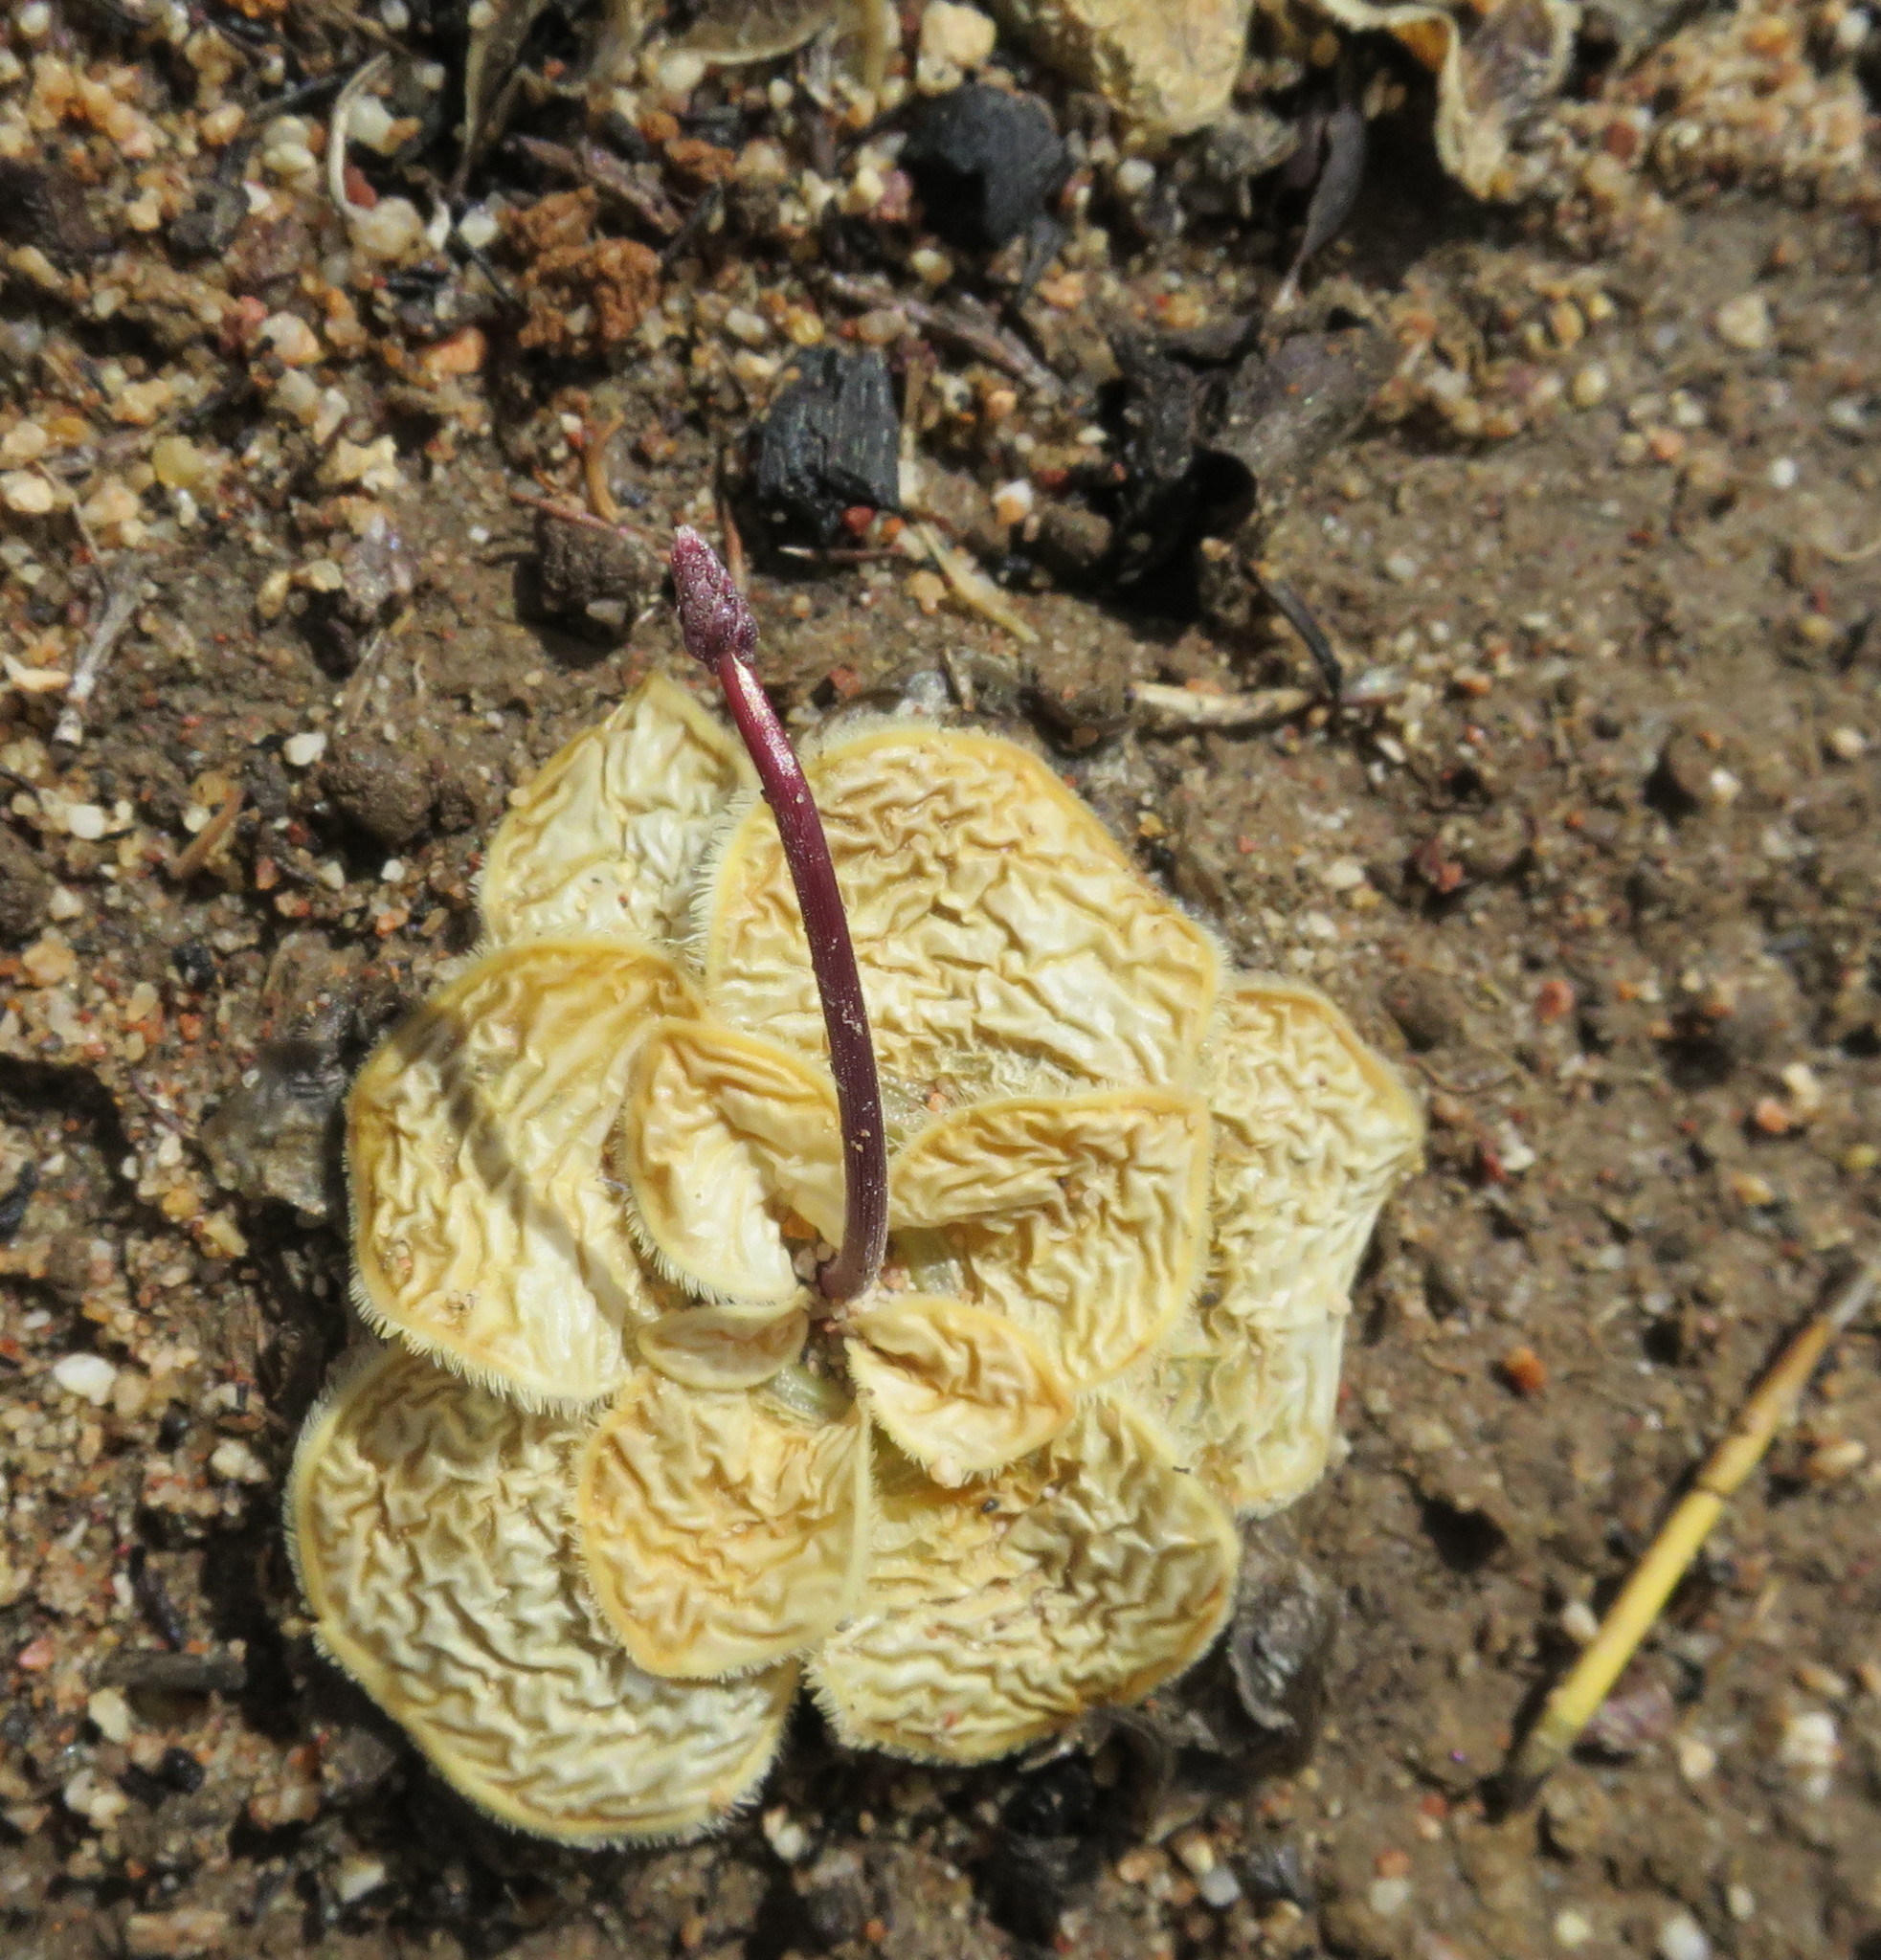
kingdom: Plantae
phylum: Tracheophyta
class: Liliopsida
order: Asparagales
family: Asparagaceae
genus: Drimia
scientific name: Drimia ciliata
